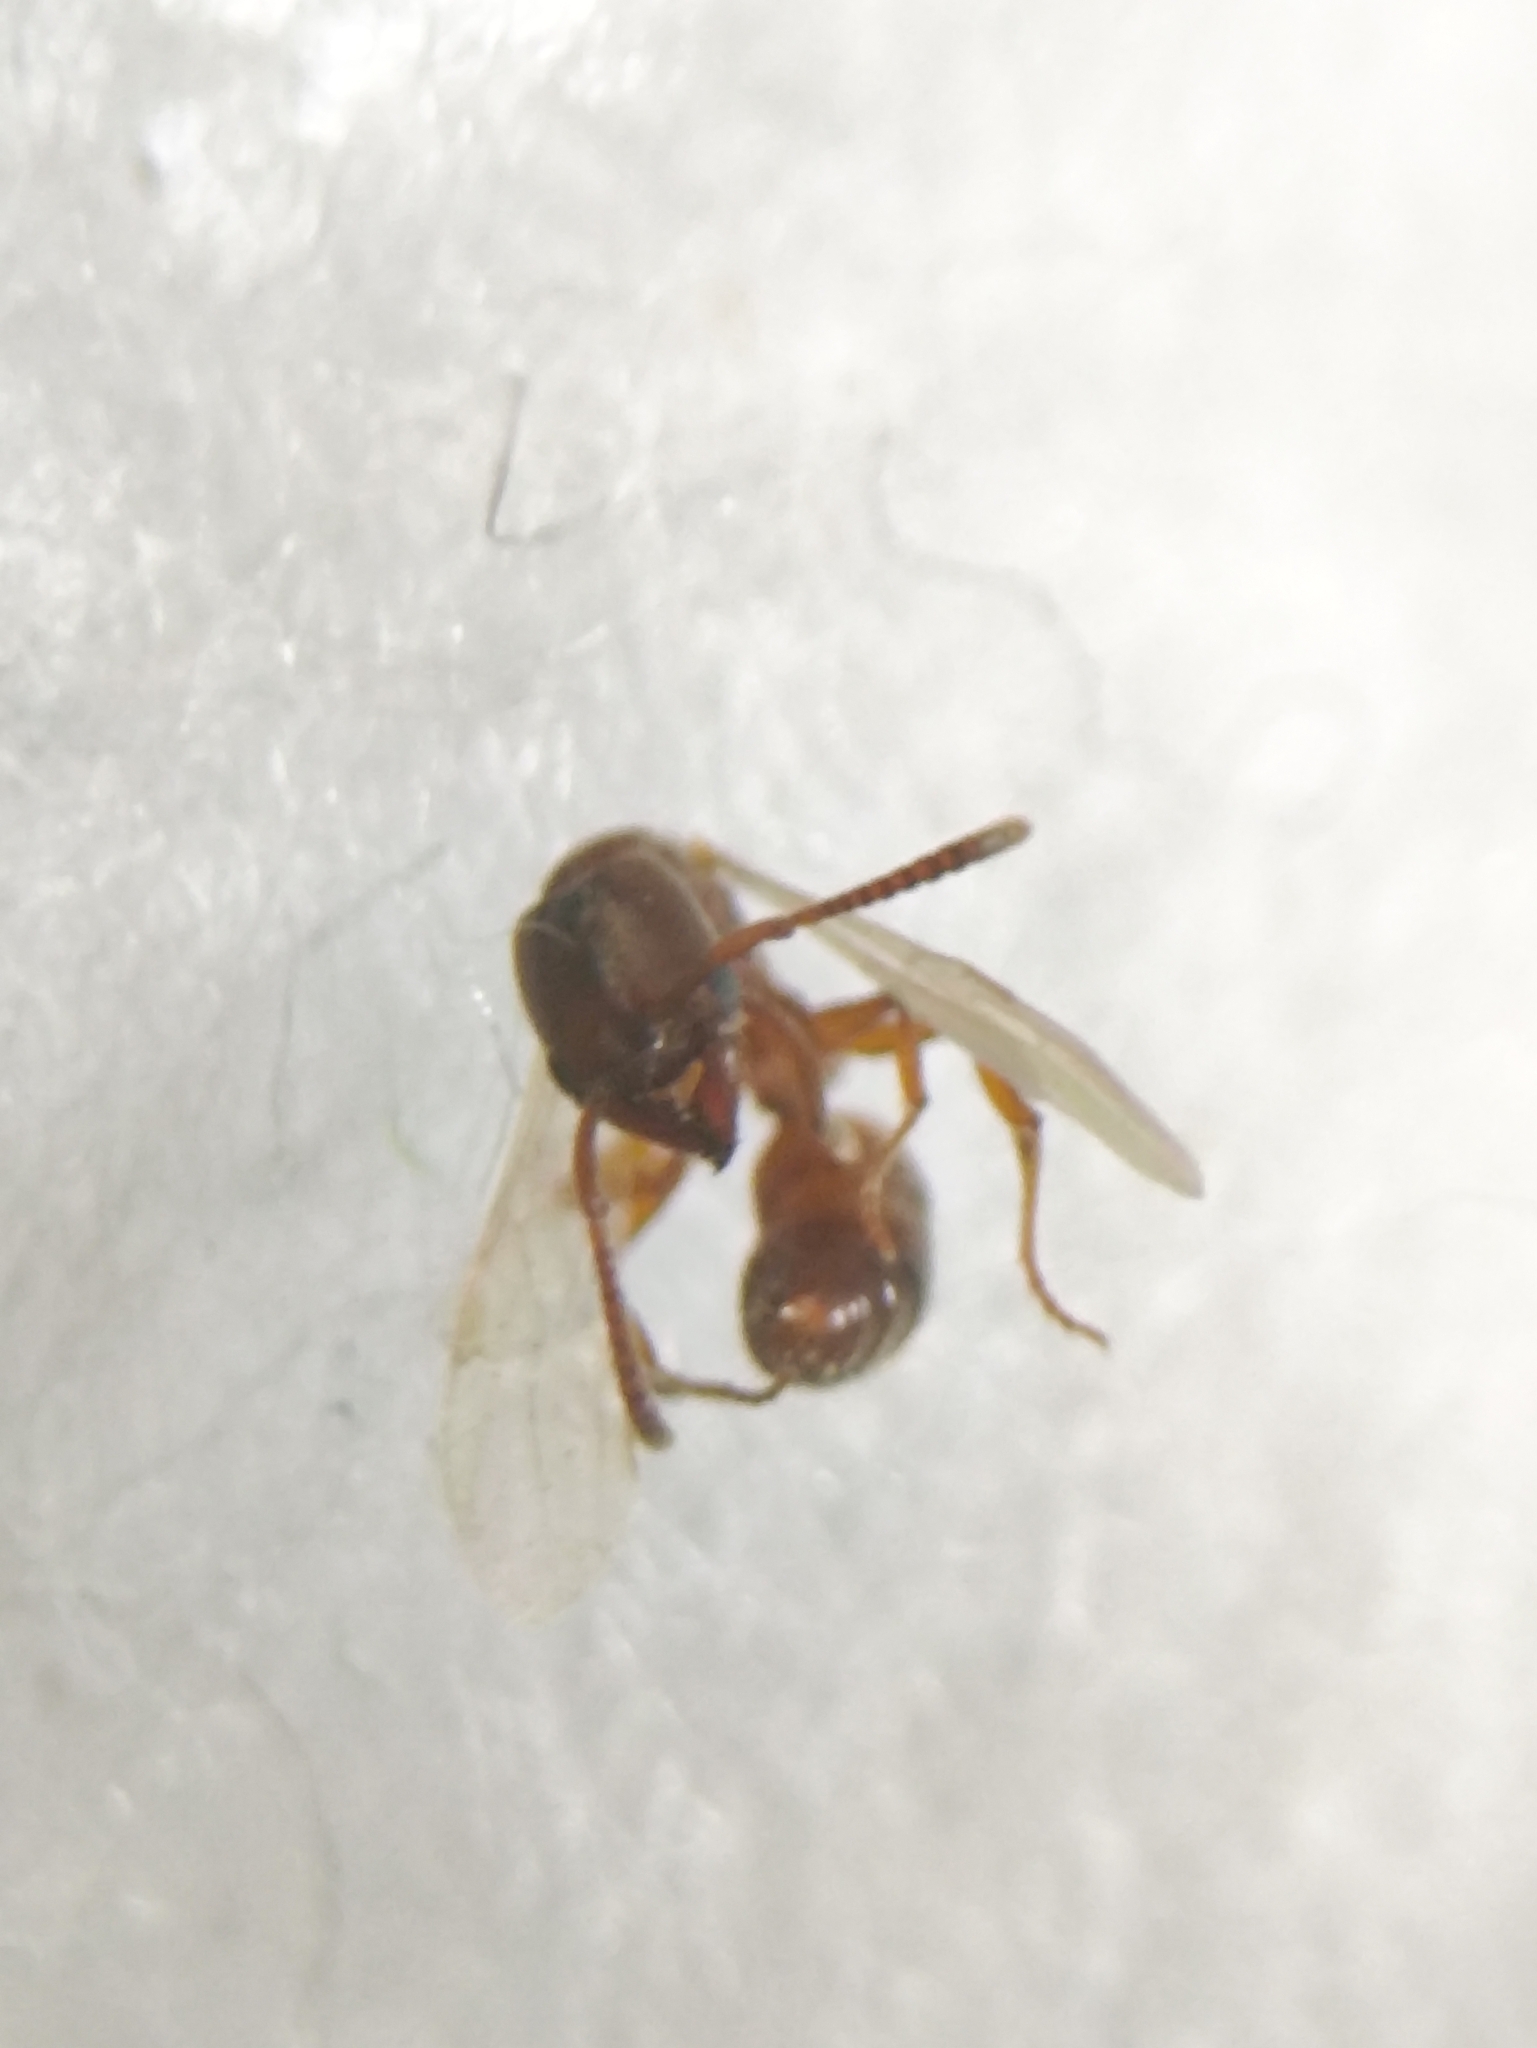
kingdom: Animalia
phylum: Arthropoda
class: Insecta
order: Hymenoptera
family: Formicidae
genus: Pachycondyla
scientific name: Pachycondyla darwinii
